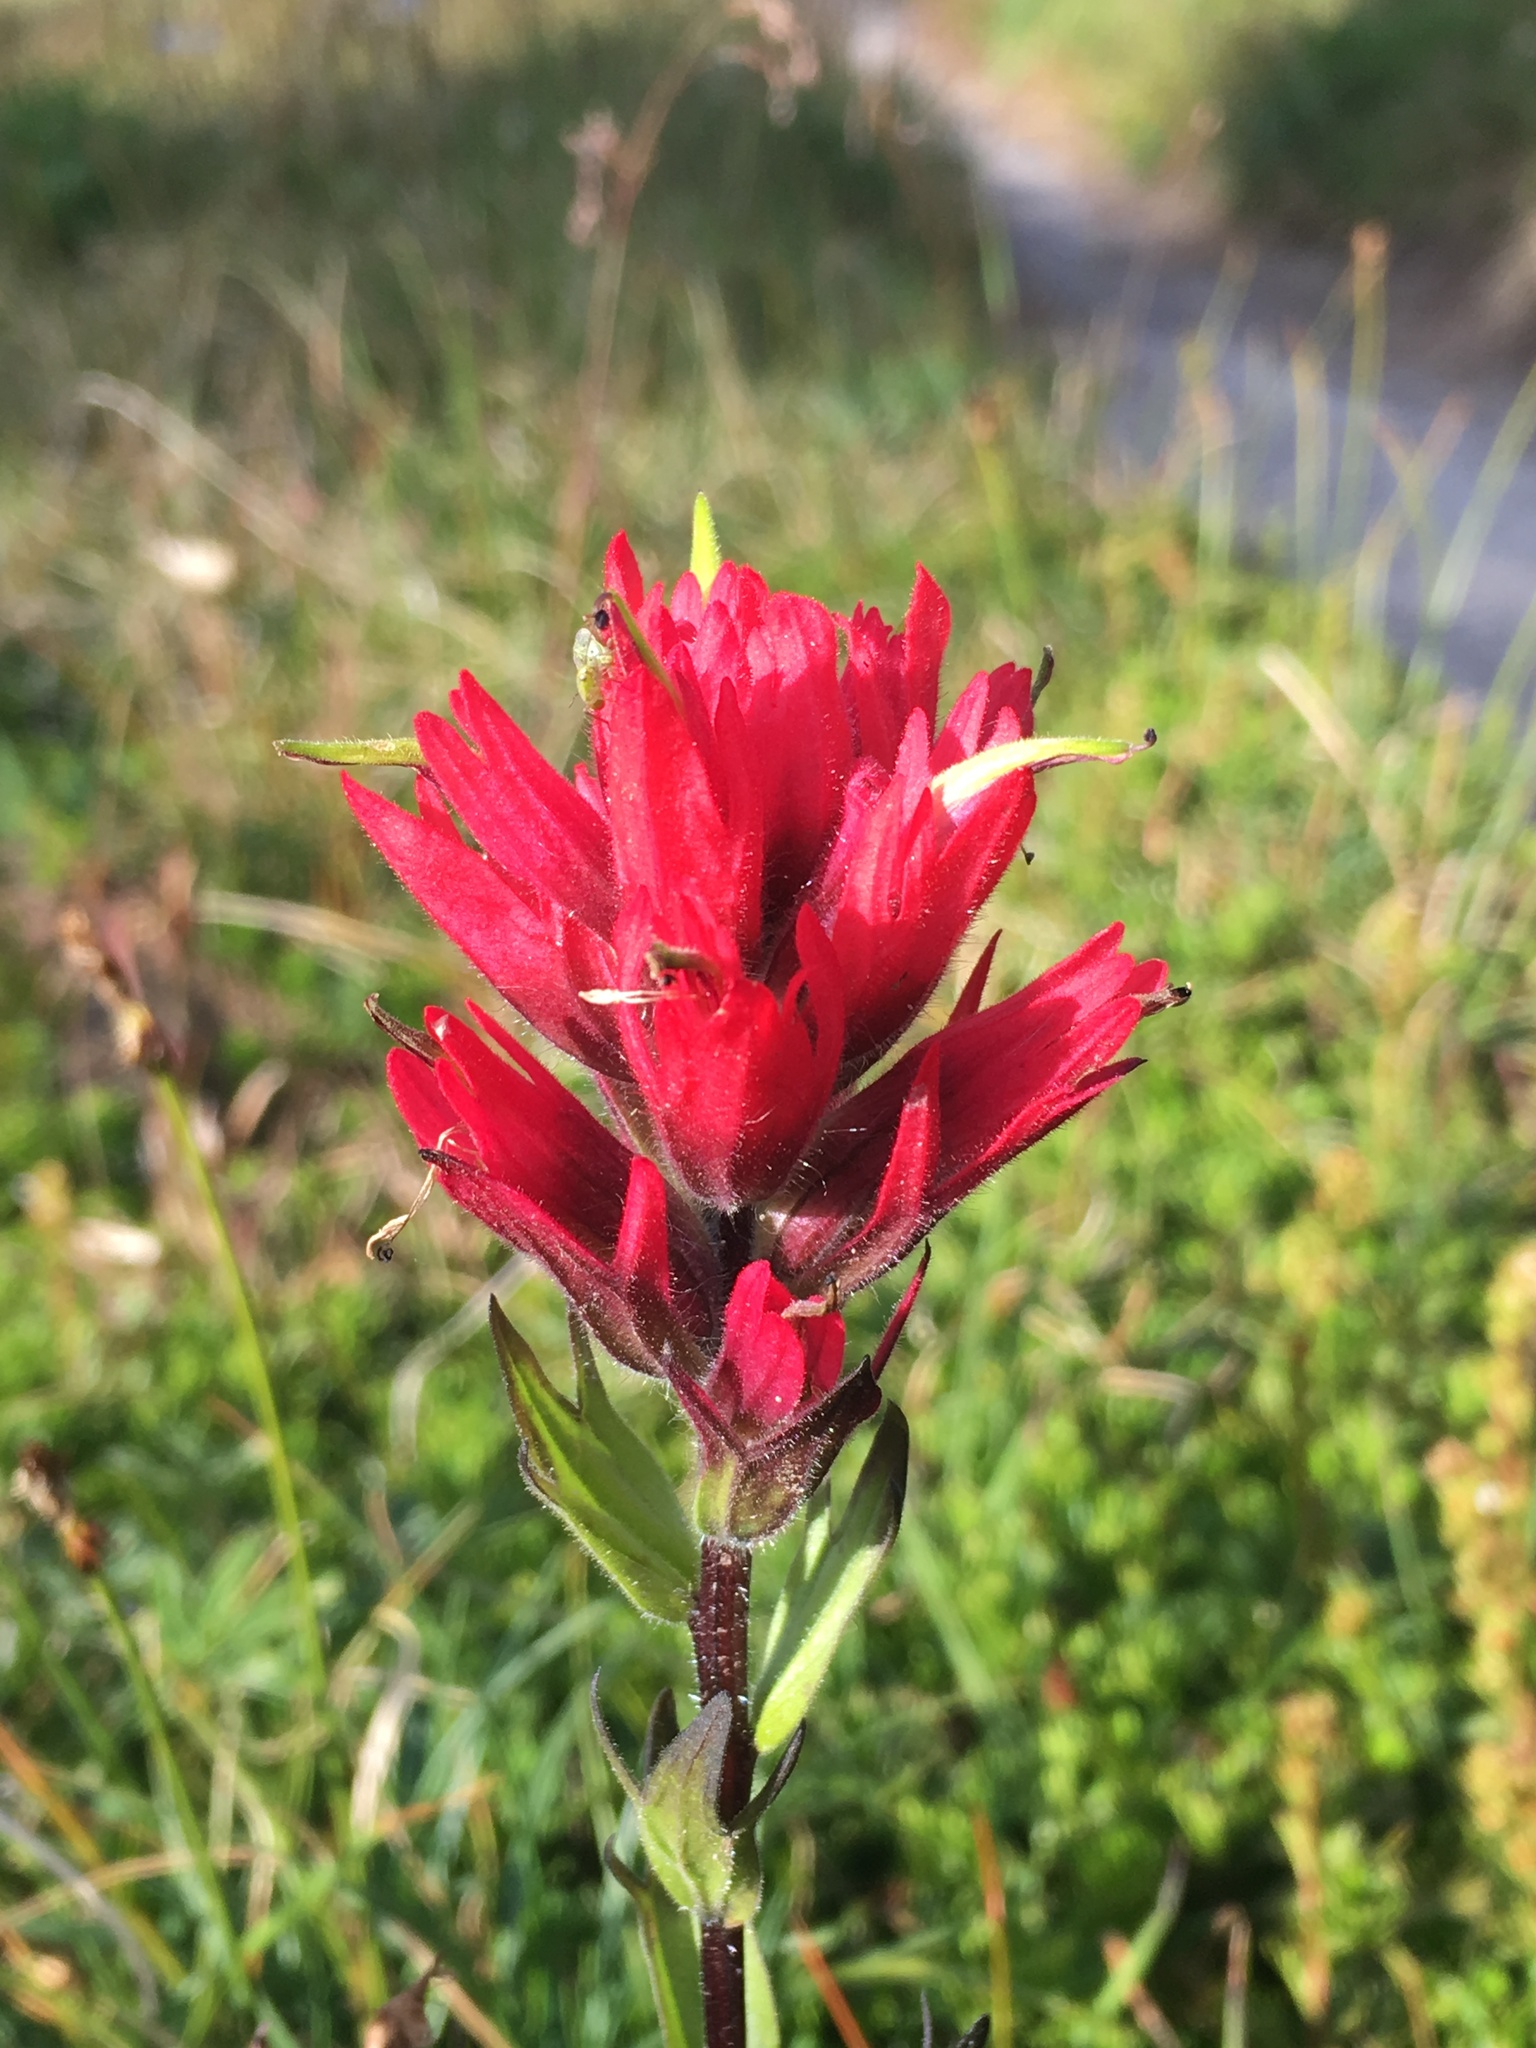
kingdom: Plantae
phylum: Tracheophyta
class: Magnoliopsida
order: Lamiales
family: Orobanchaceae
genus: Castilleja
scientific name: Castilleja parviflora
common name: Mountain paintbrush
